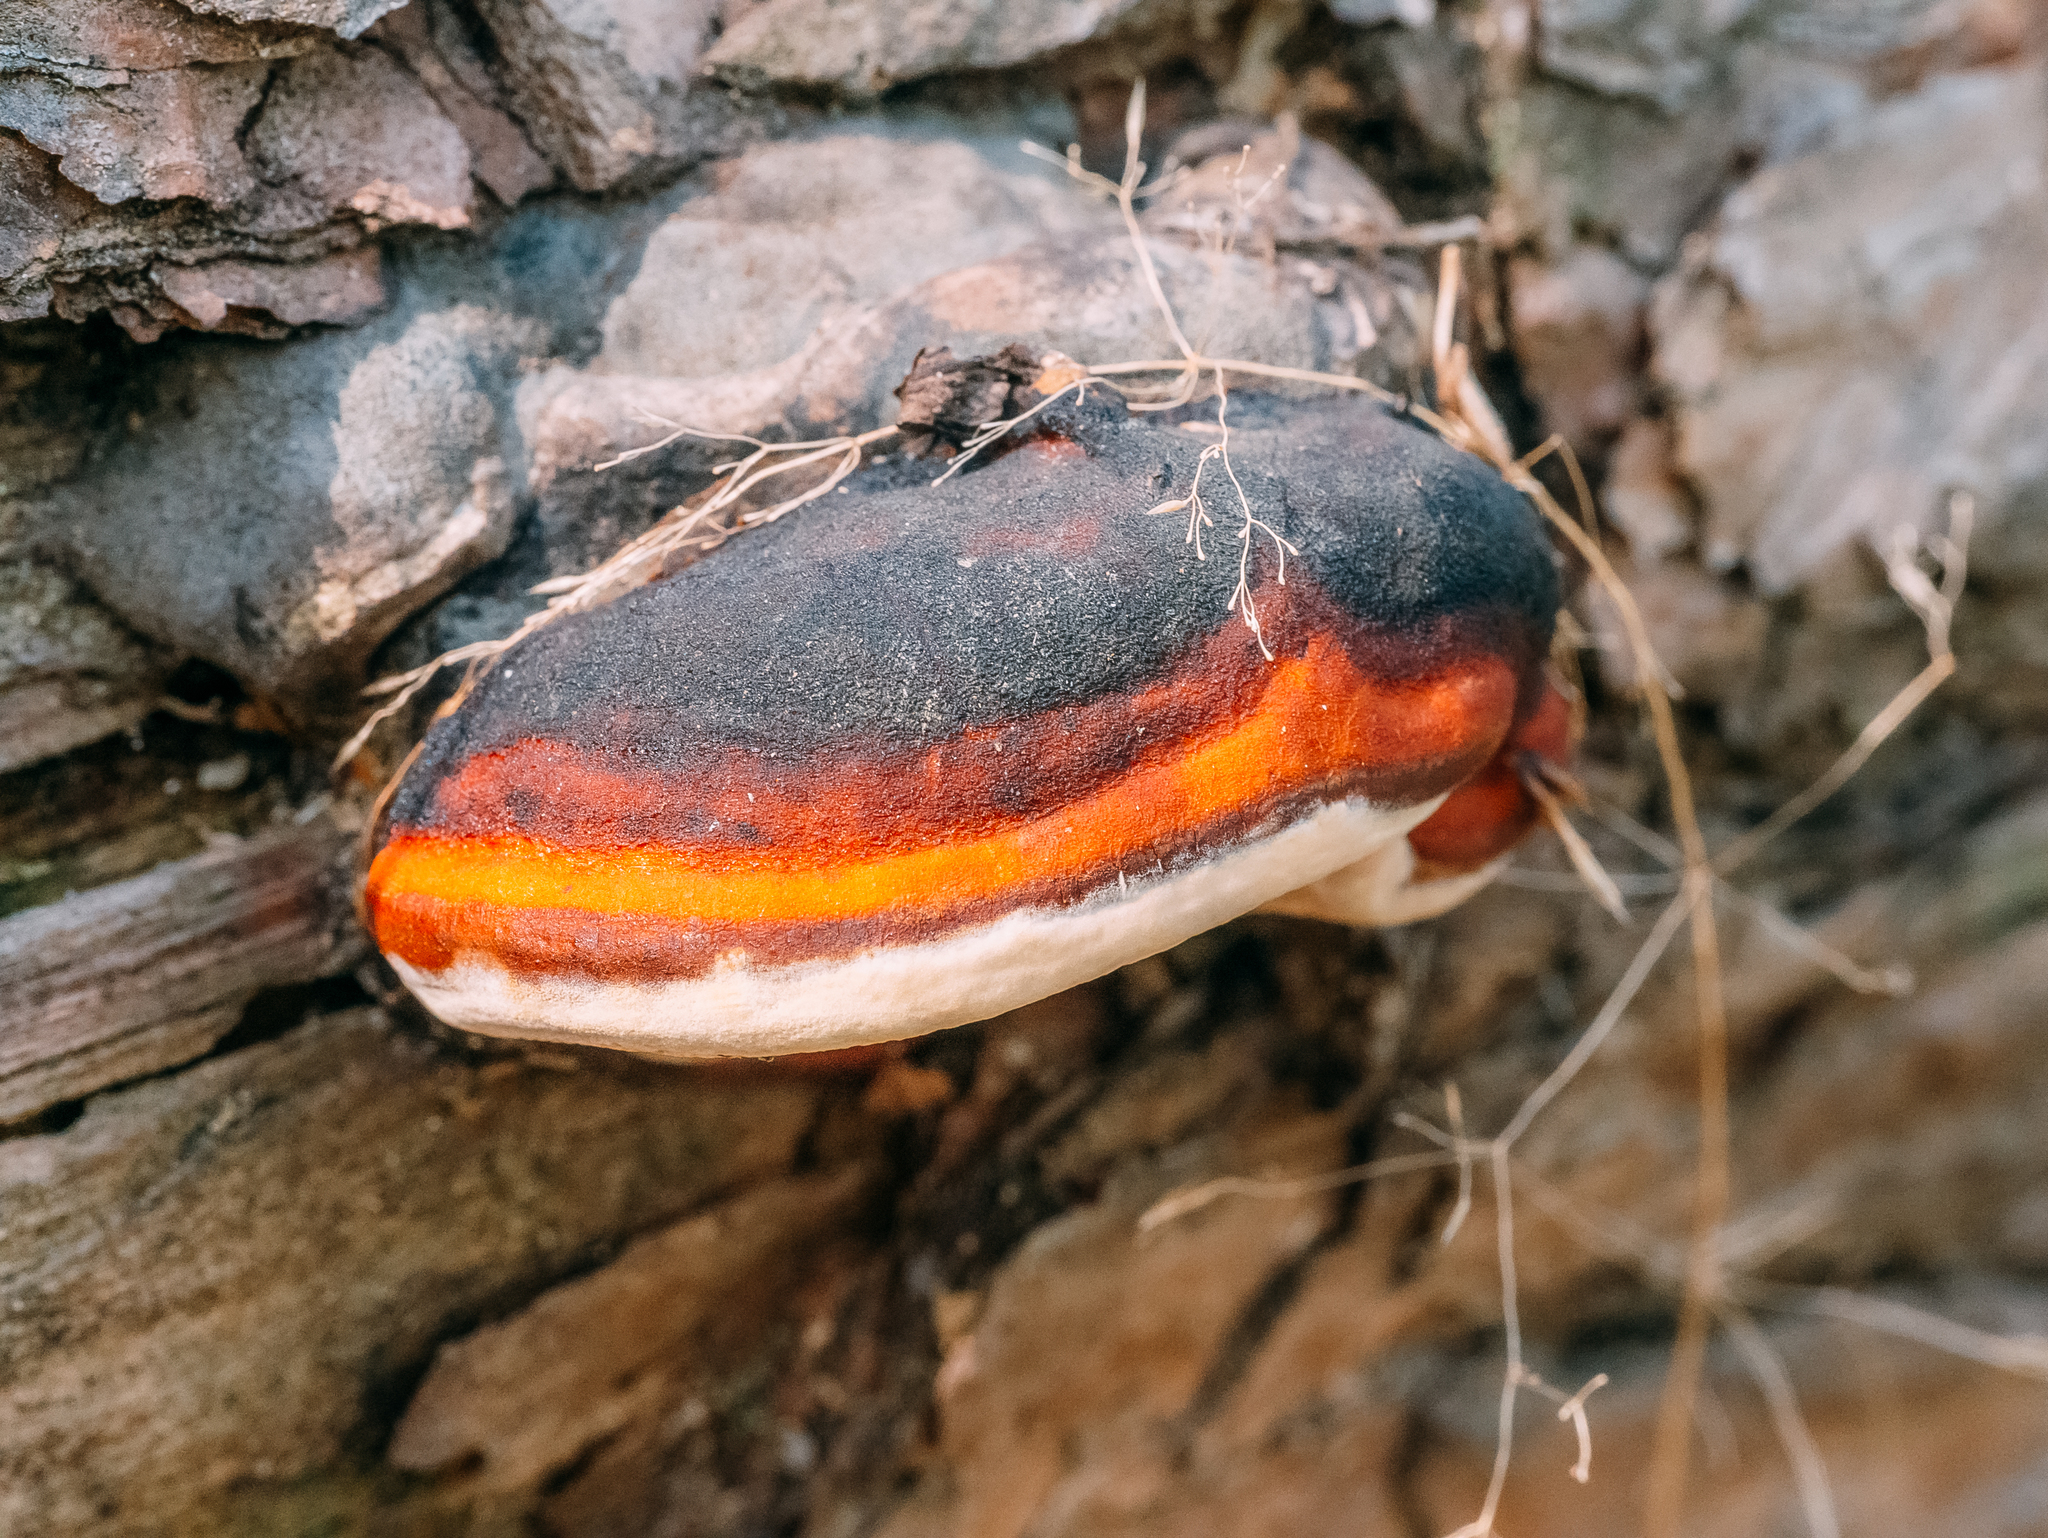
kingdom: Fungi
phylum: Basidiomycota
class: Agaricomycetes
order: Polyporales
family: Fomitopsidaceae
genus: Fomitopsis
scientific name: Fomitopsis pinicola
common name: Red-belted bracket
